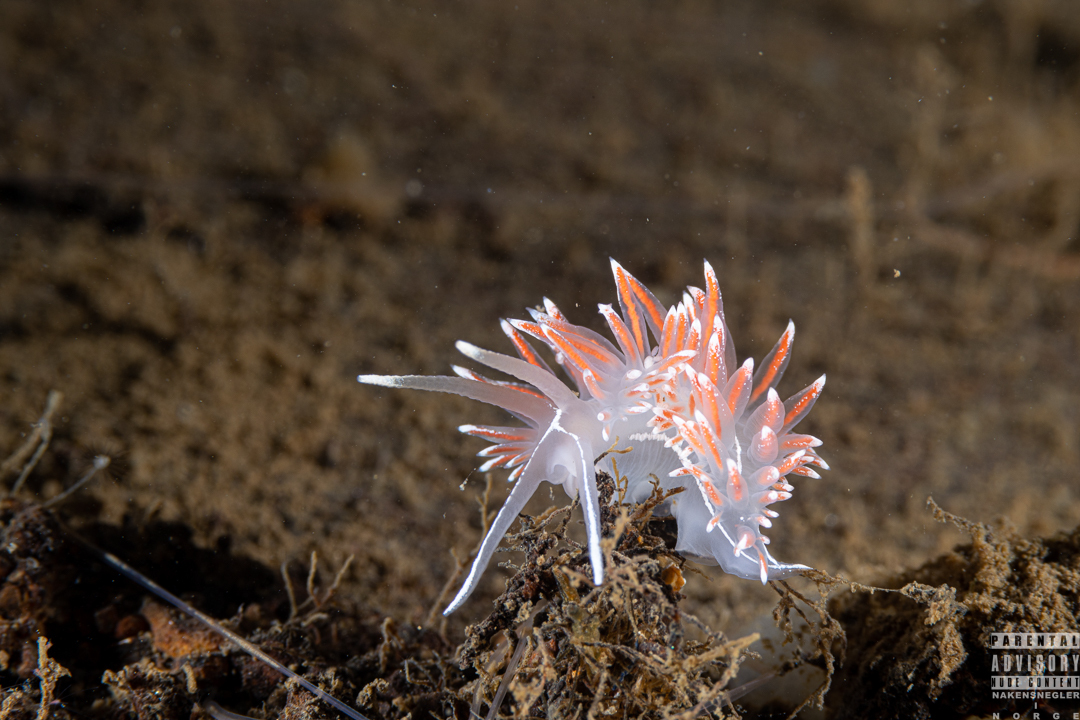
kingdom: Animalia
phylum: Mollusca
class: Gastropoda
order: Nudibranchia
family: Coryphellidae
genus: Coryphella
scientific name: Coryphella lineata
